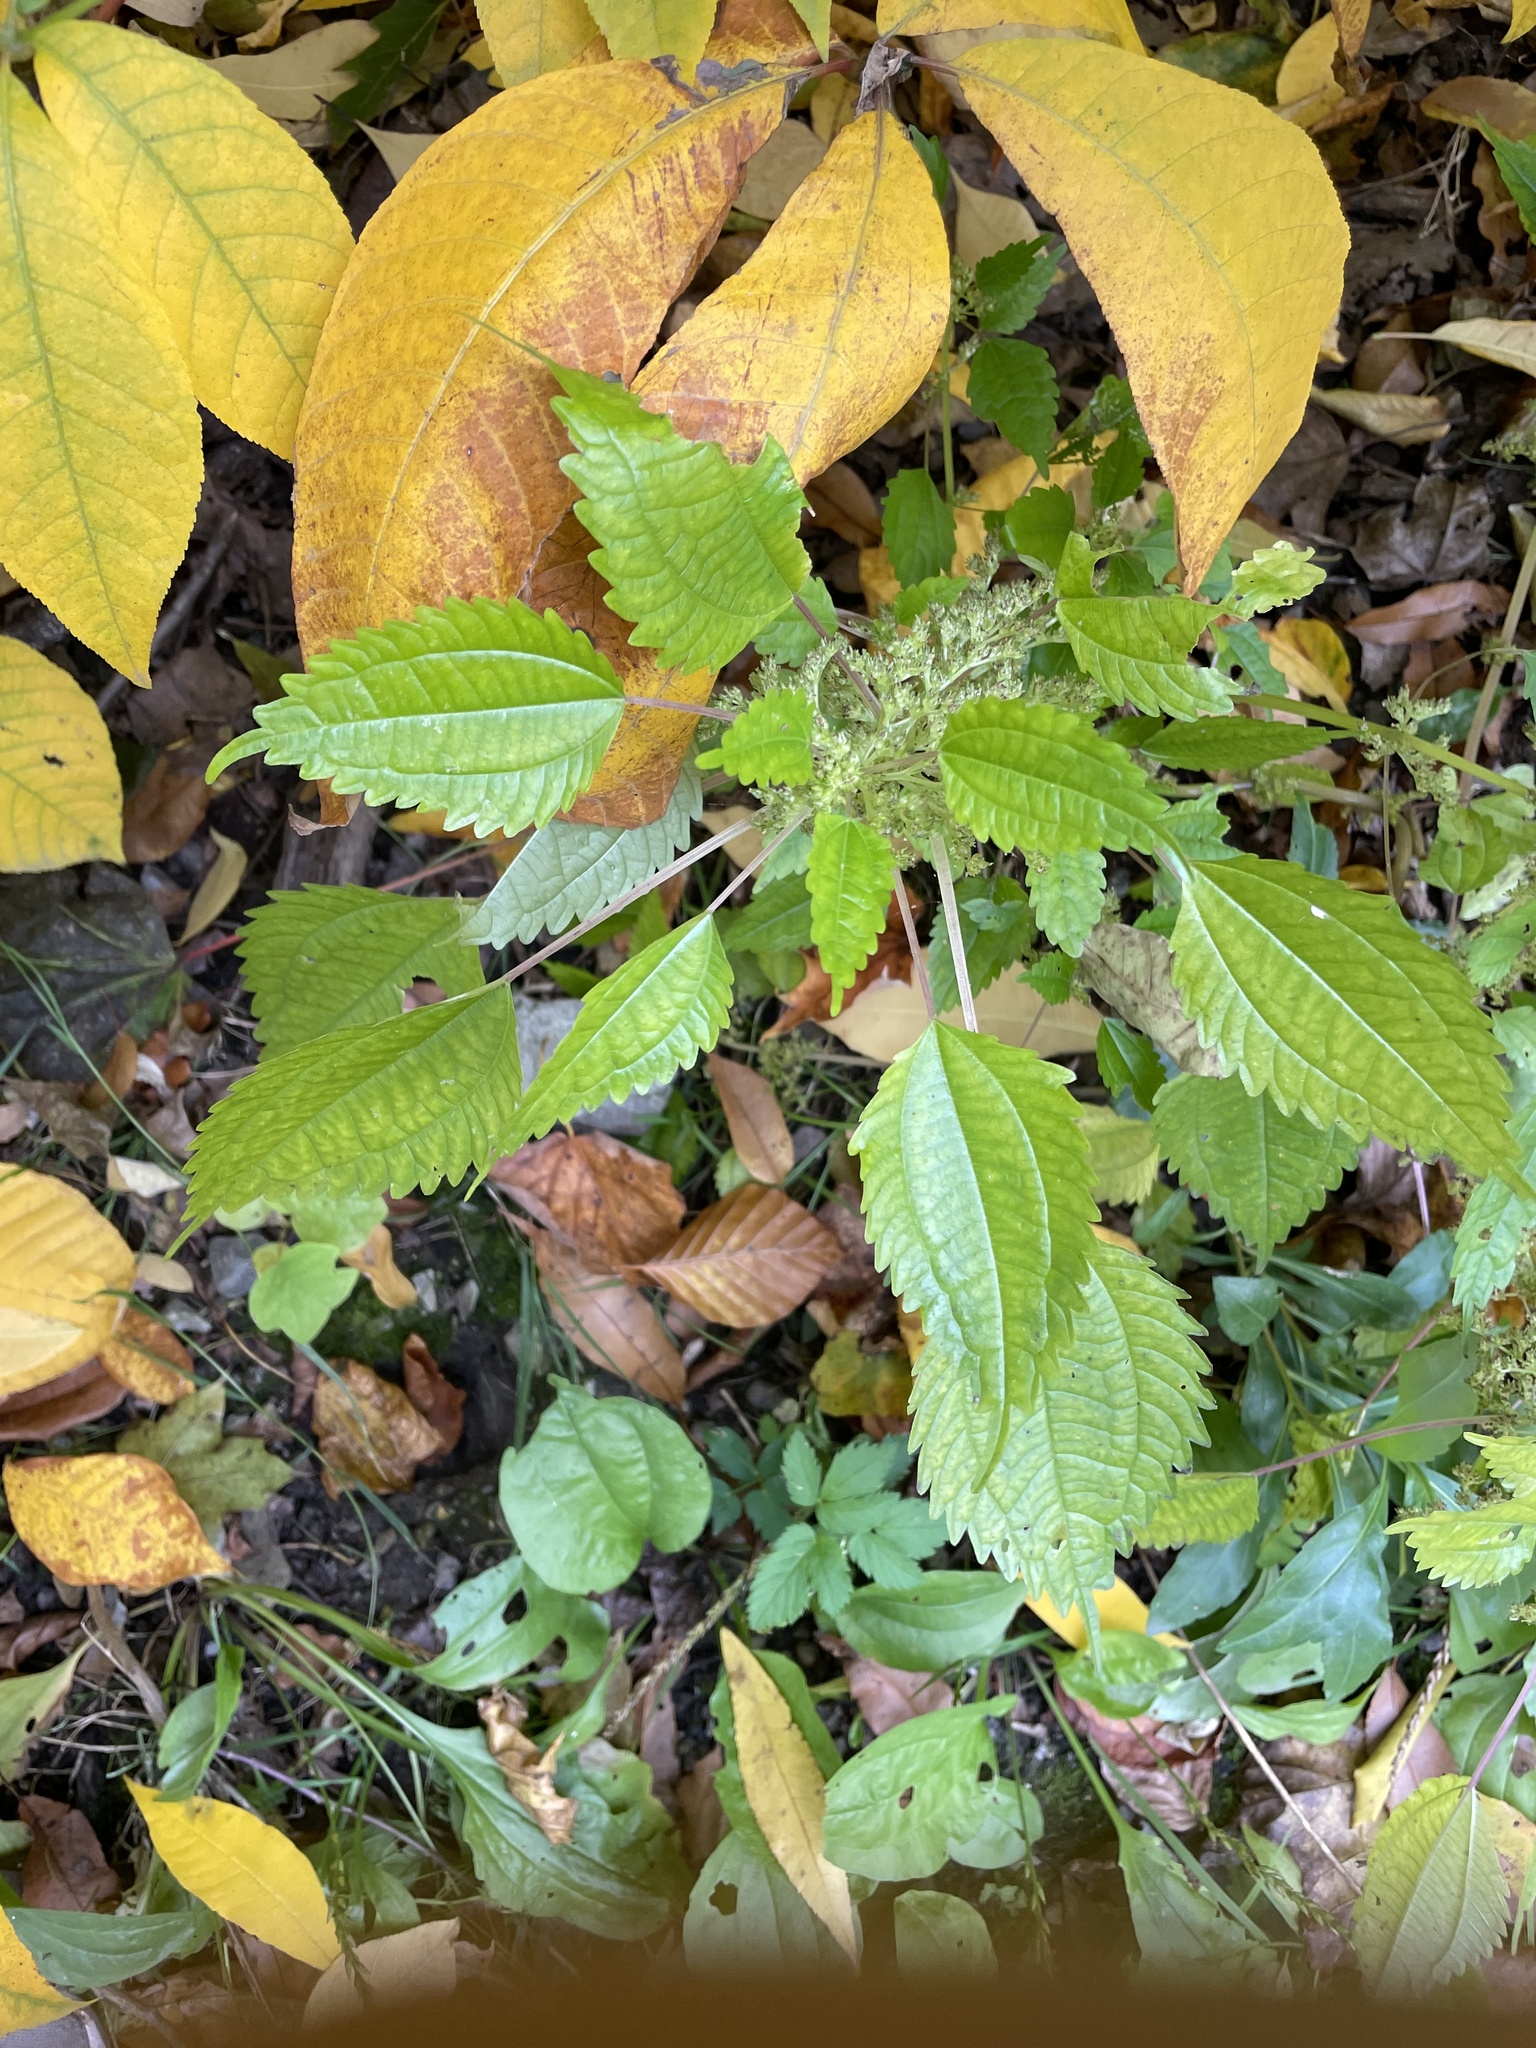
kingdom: Plantae
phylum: Tracheophyta
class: Magnoliopsida
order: Rosales
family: Urticaceae
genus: Pilea
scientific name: Pilea pumila
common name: Clearweed
